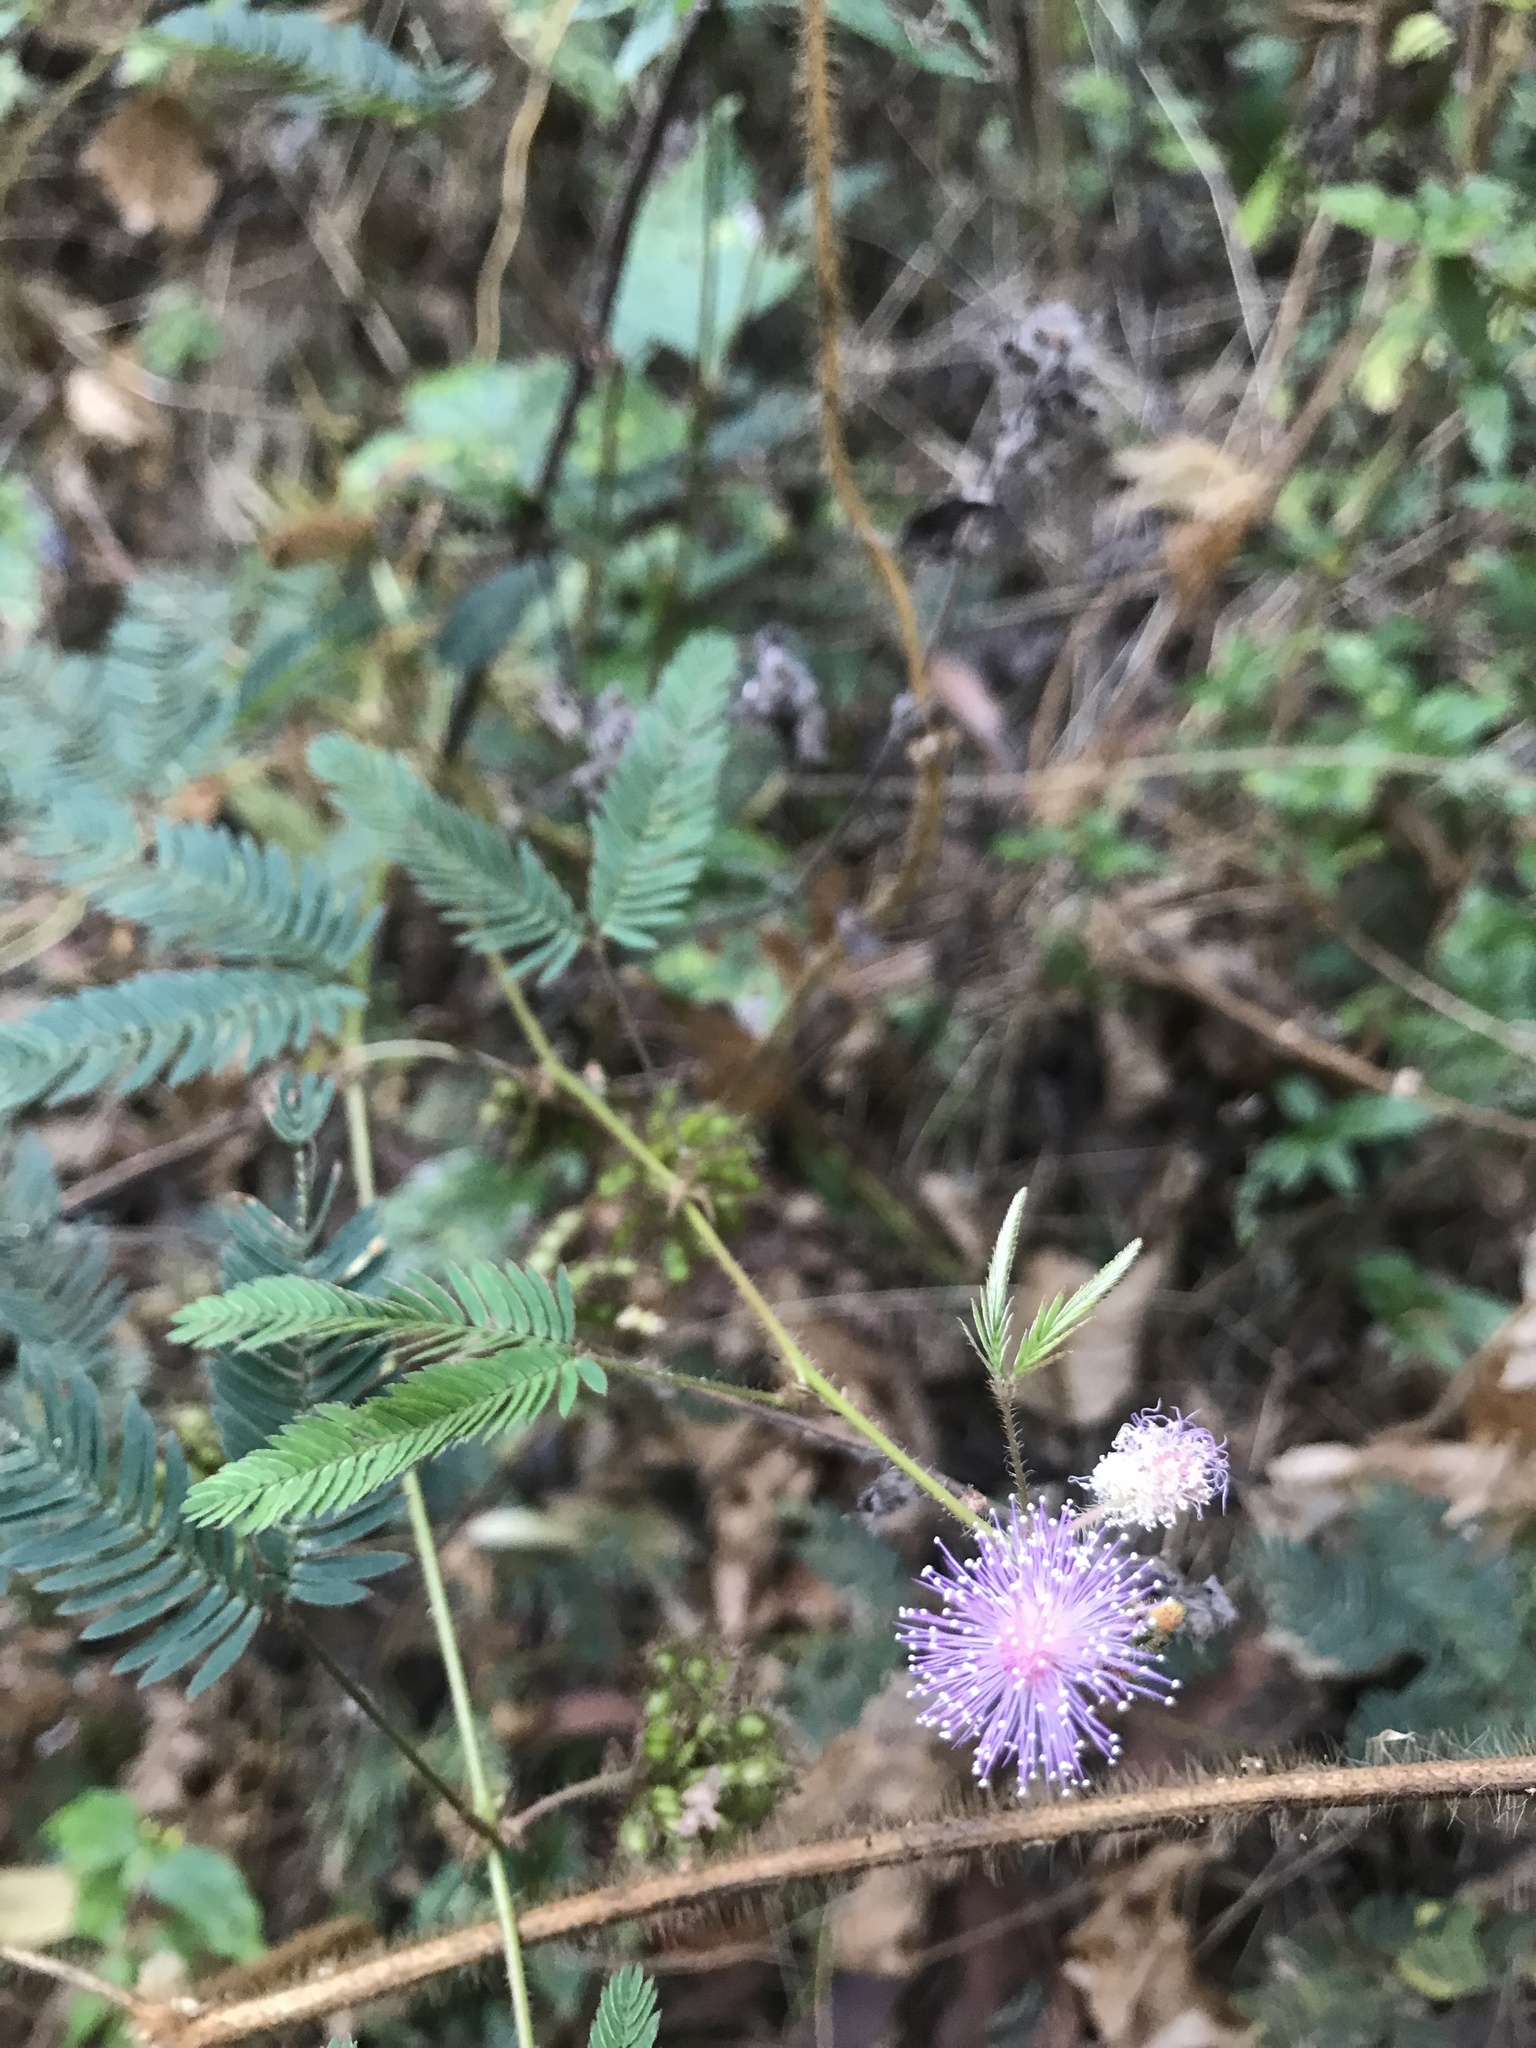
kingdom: Plantae
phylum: Tracheophyta
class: Magnoliopsida
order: Fabales
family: Fabaceae
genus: Mimosa
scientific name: Mimosa pudica
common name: Sensitive plant
